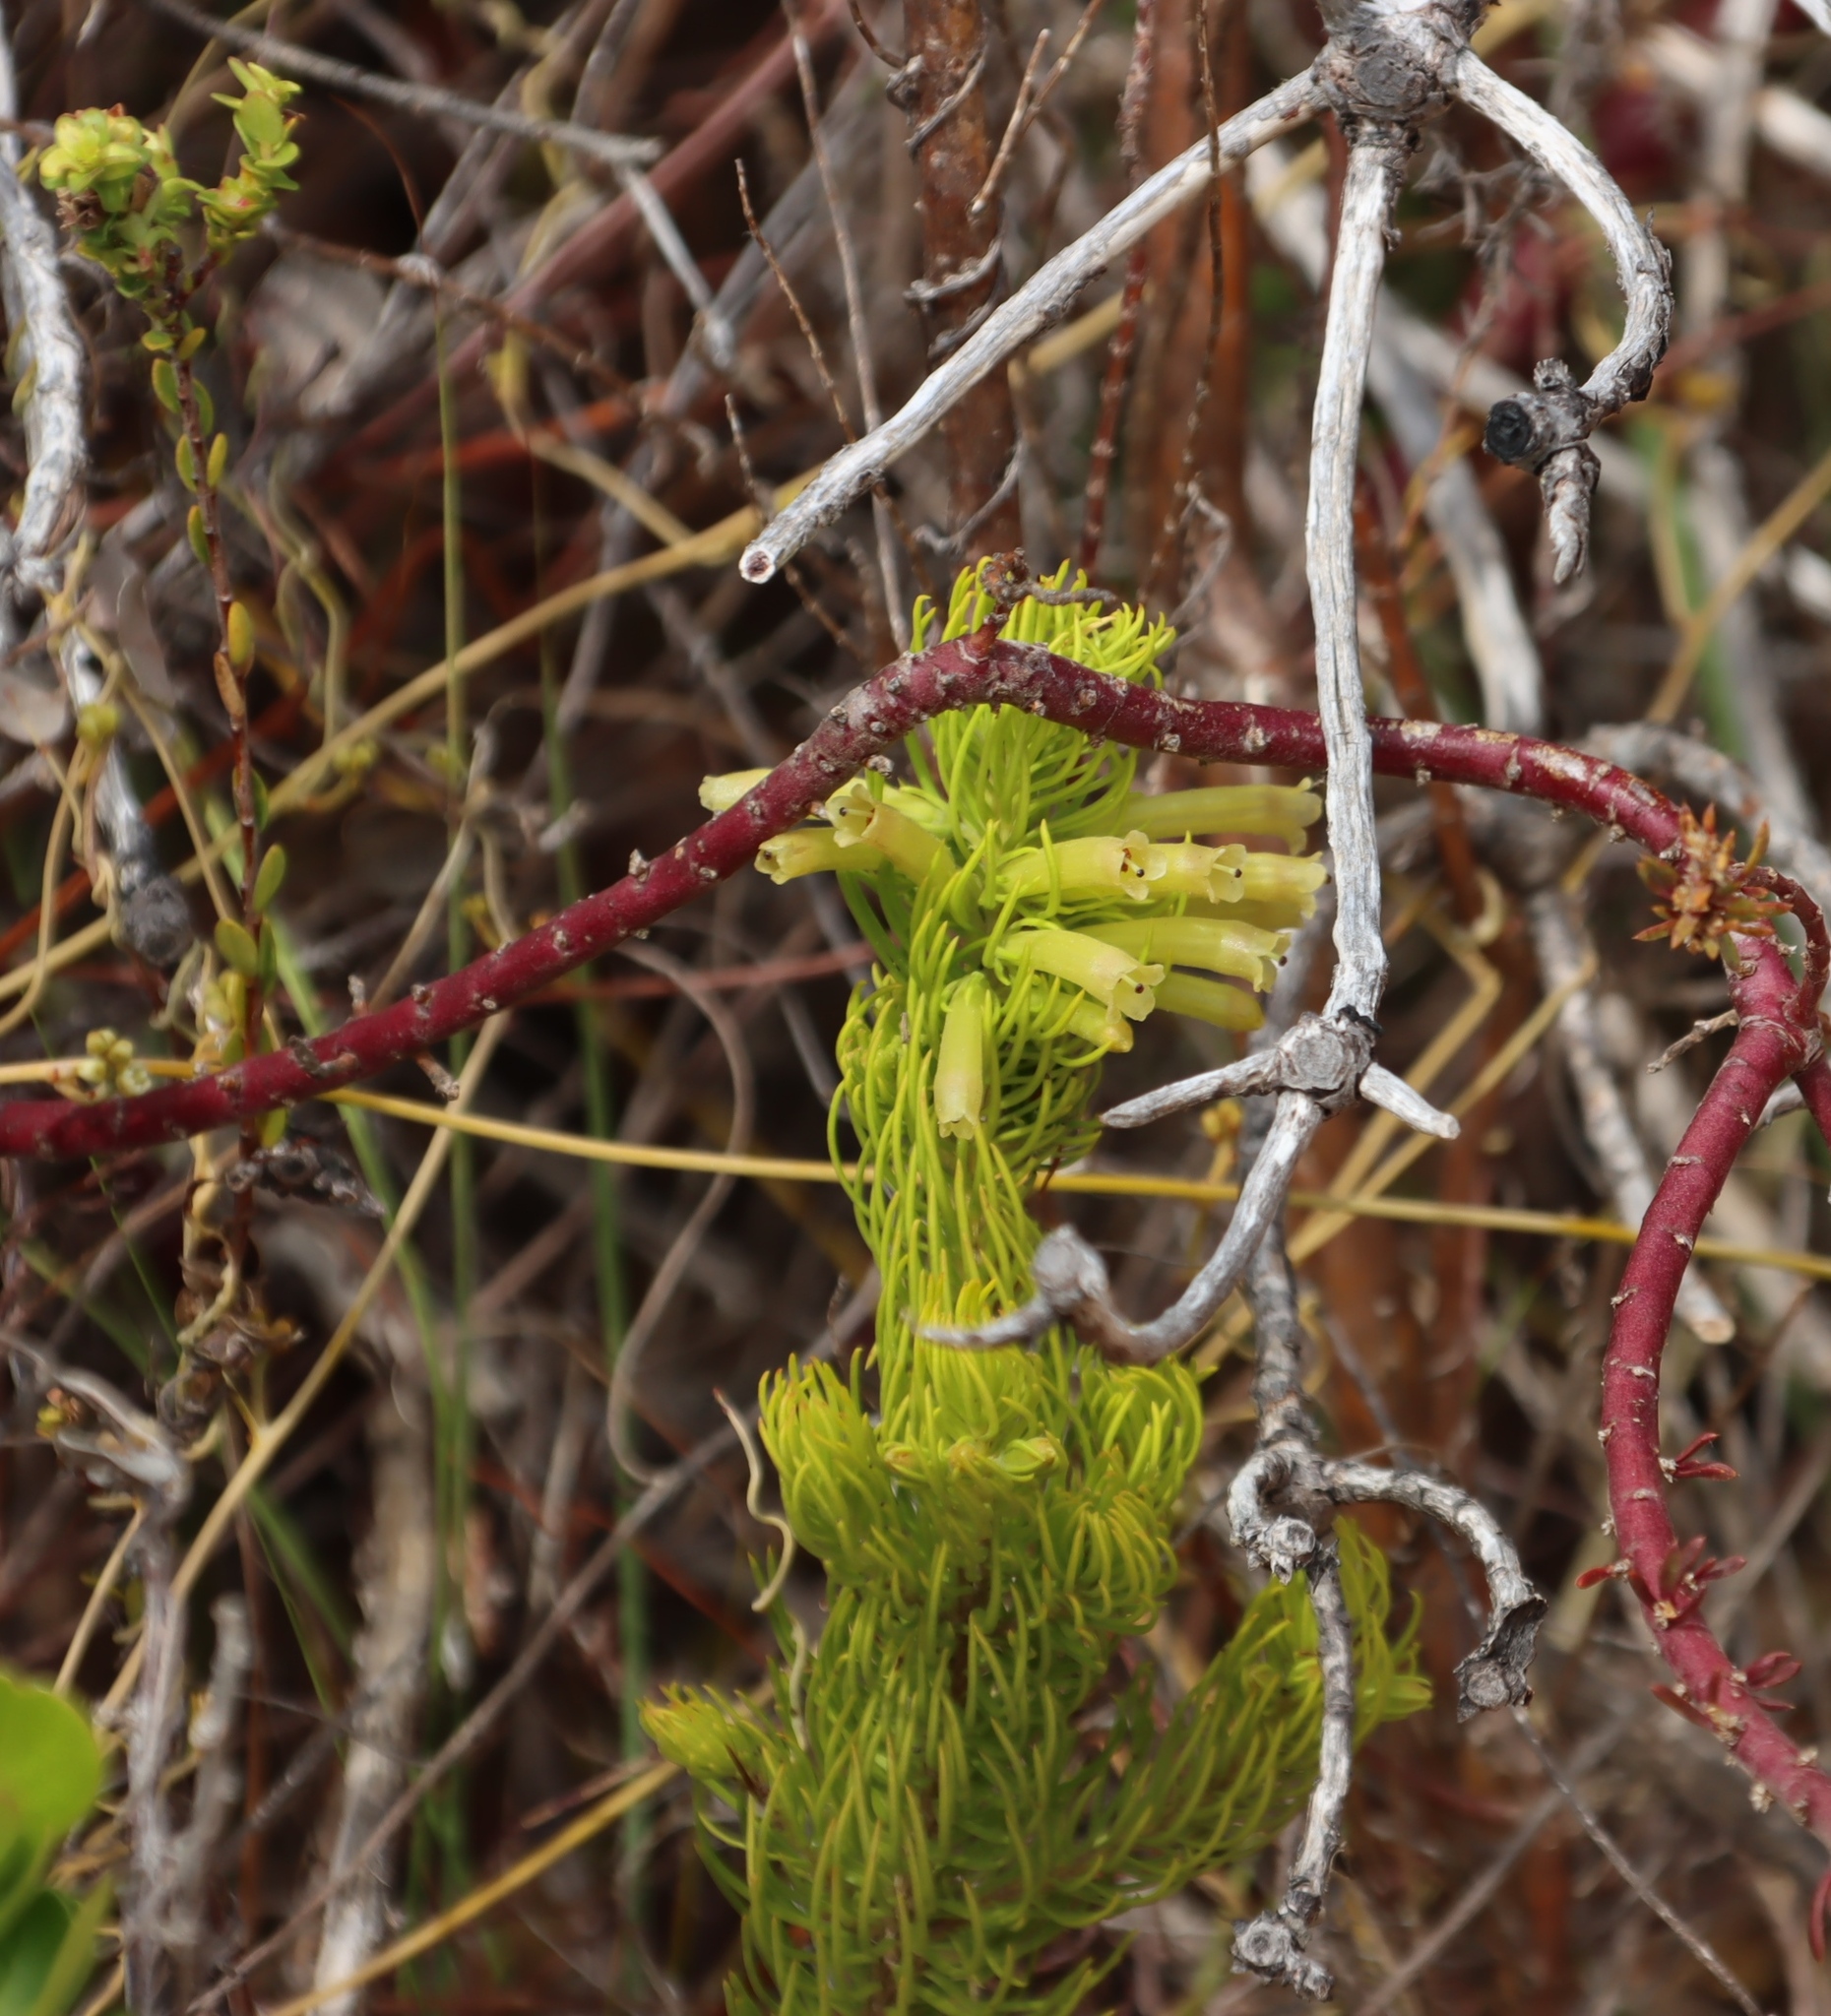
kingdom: Plantae
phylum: Tracheophyta
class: Magnoliopsida
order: Ericales
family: Ericaceae
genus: Erica
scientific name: Erica viscaria
